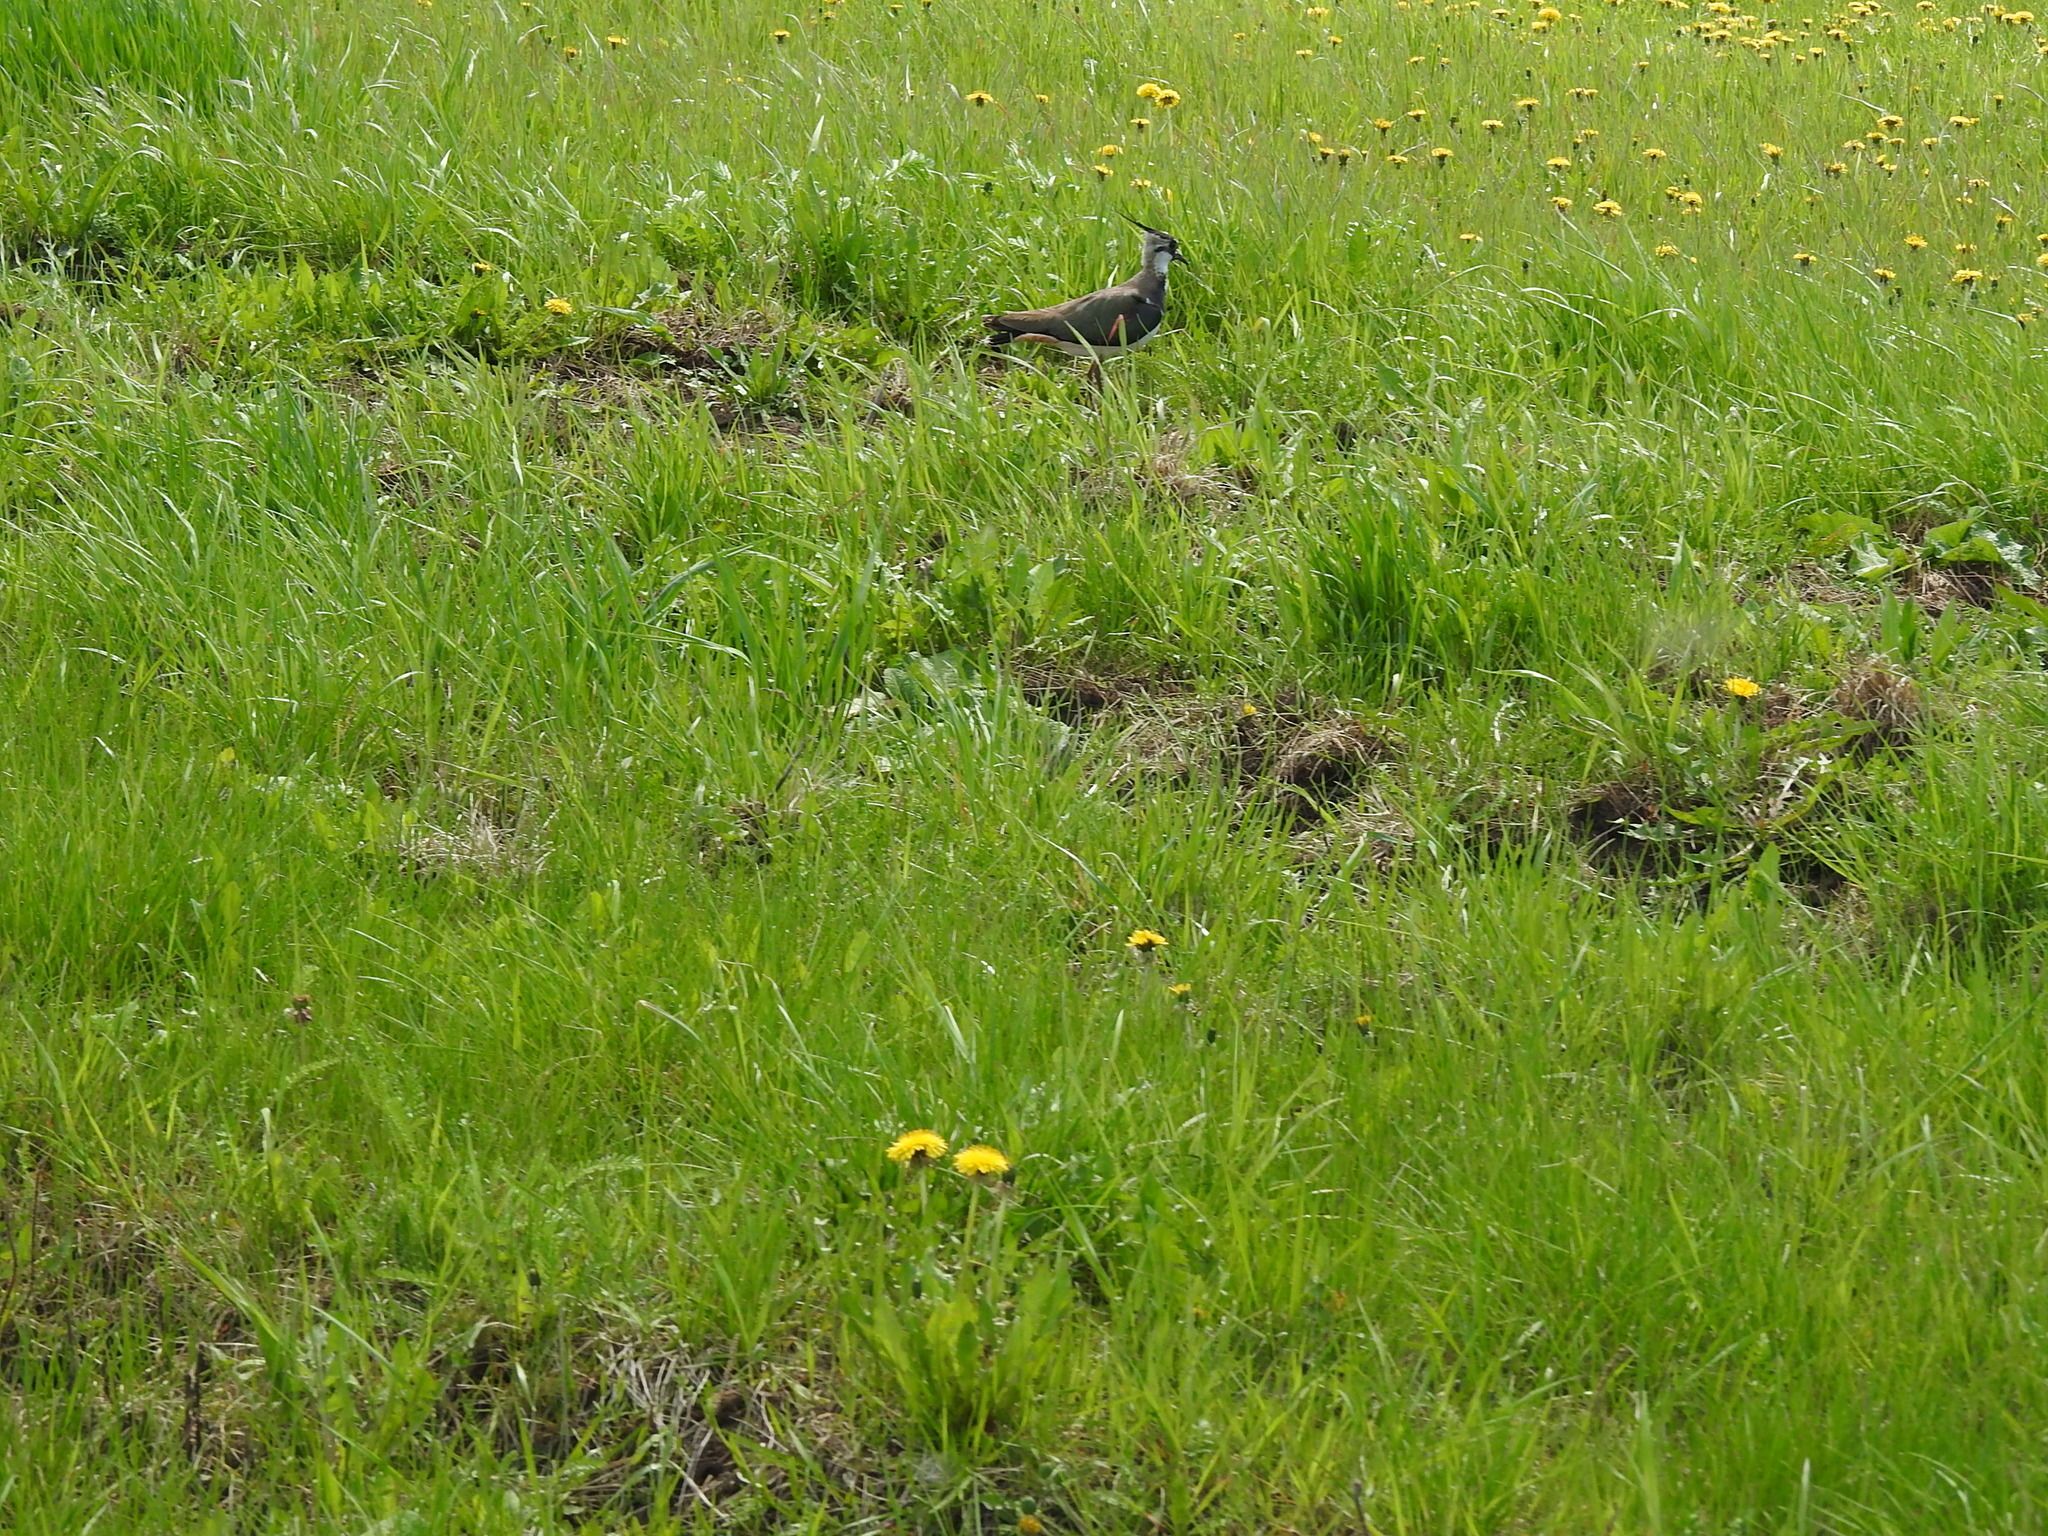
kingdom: Animalia
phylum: Chordata
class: Aves
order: Charadriiformes
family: Charadriidae
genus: Vanellus
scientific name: Vanellus vanellus
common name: Northern lapwing
